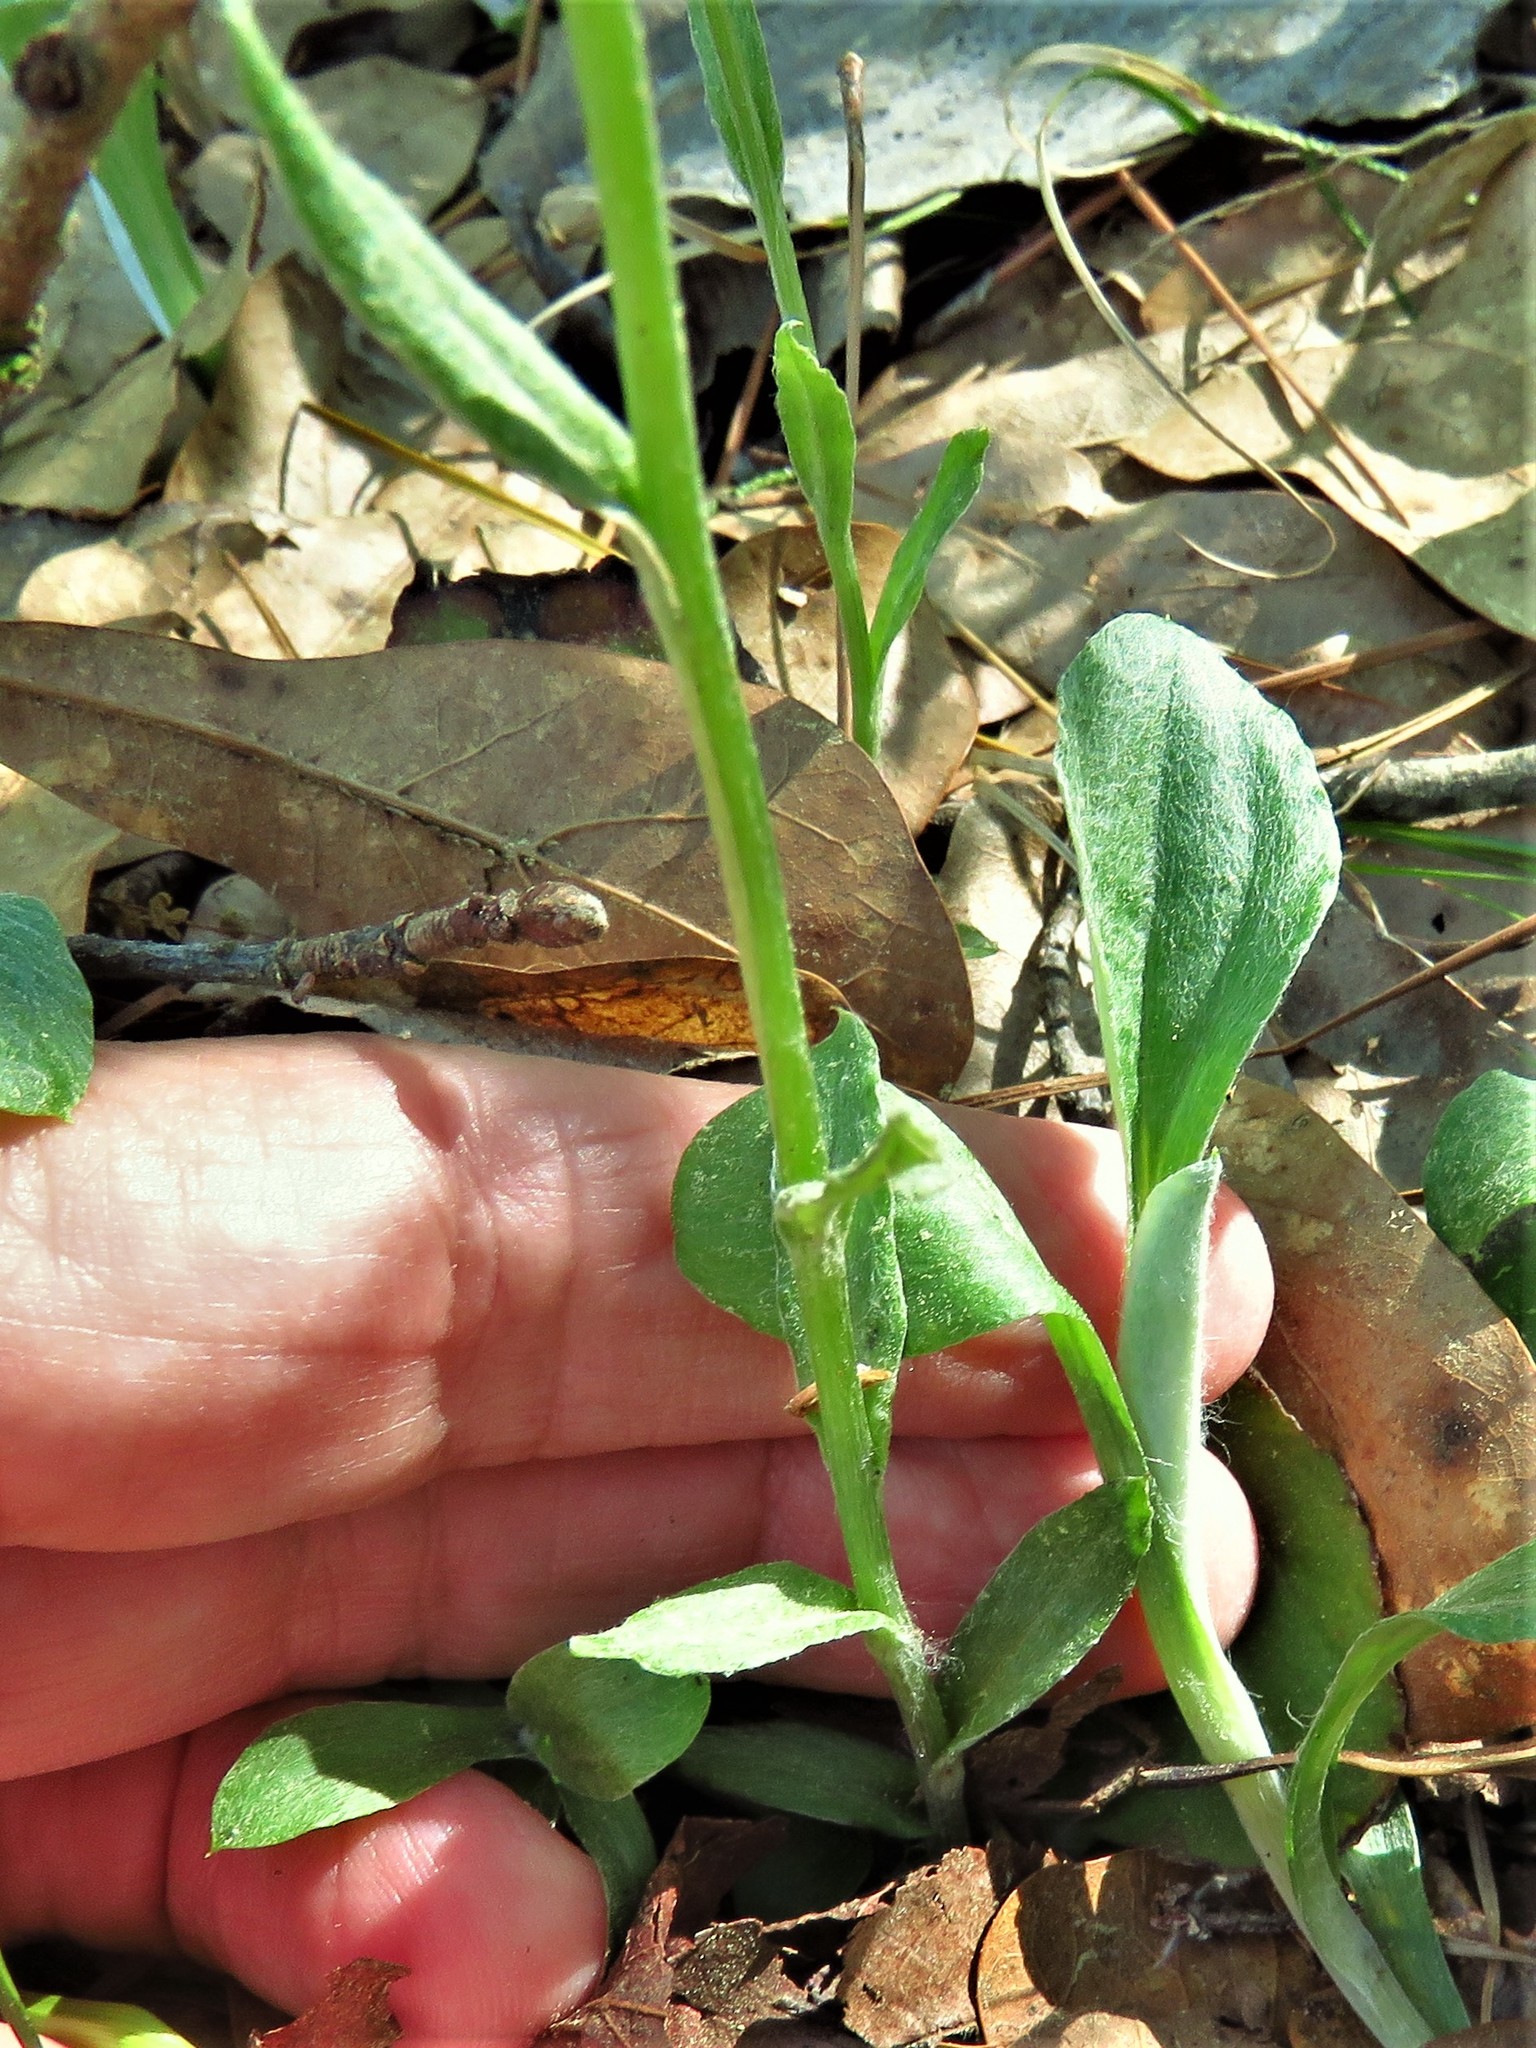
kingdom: Plantae
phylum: Tracheophyta
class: Magnoliopsida
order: Asterales
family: Asteraceae
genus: Antennaria
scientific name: Antennaria parlinii
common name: Parlin's pussytoes
